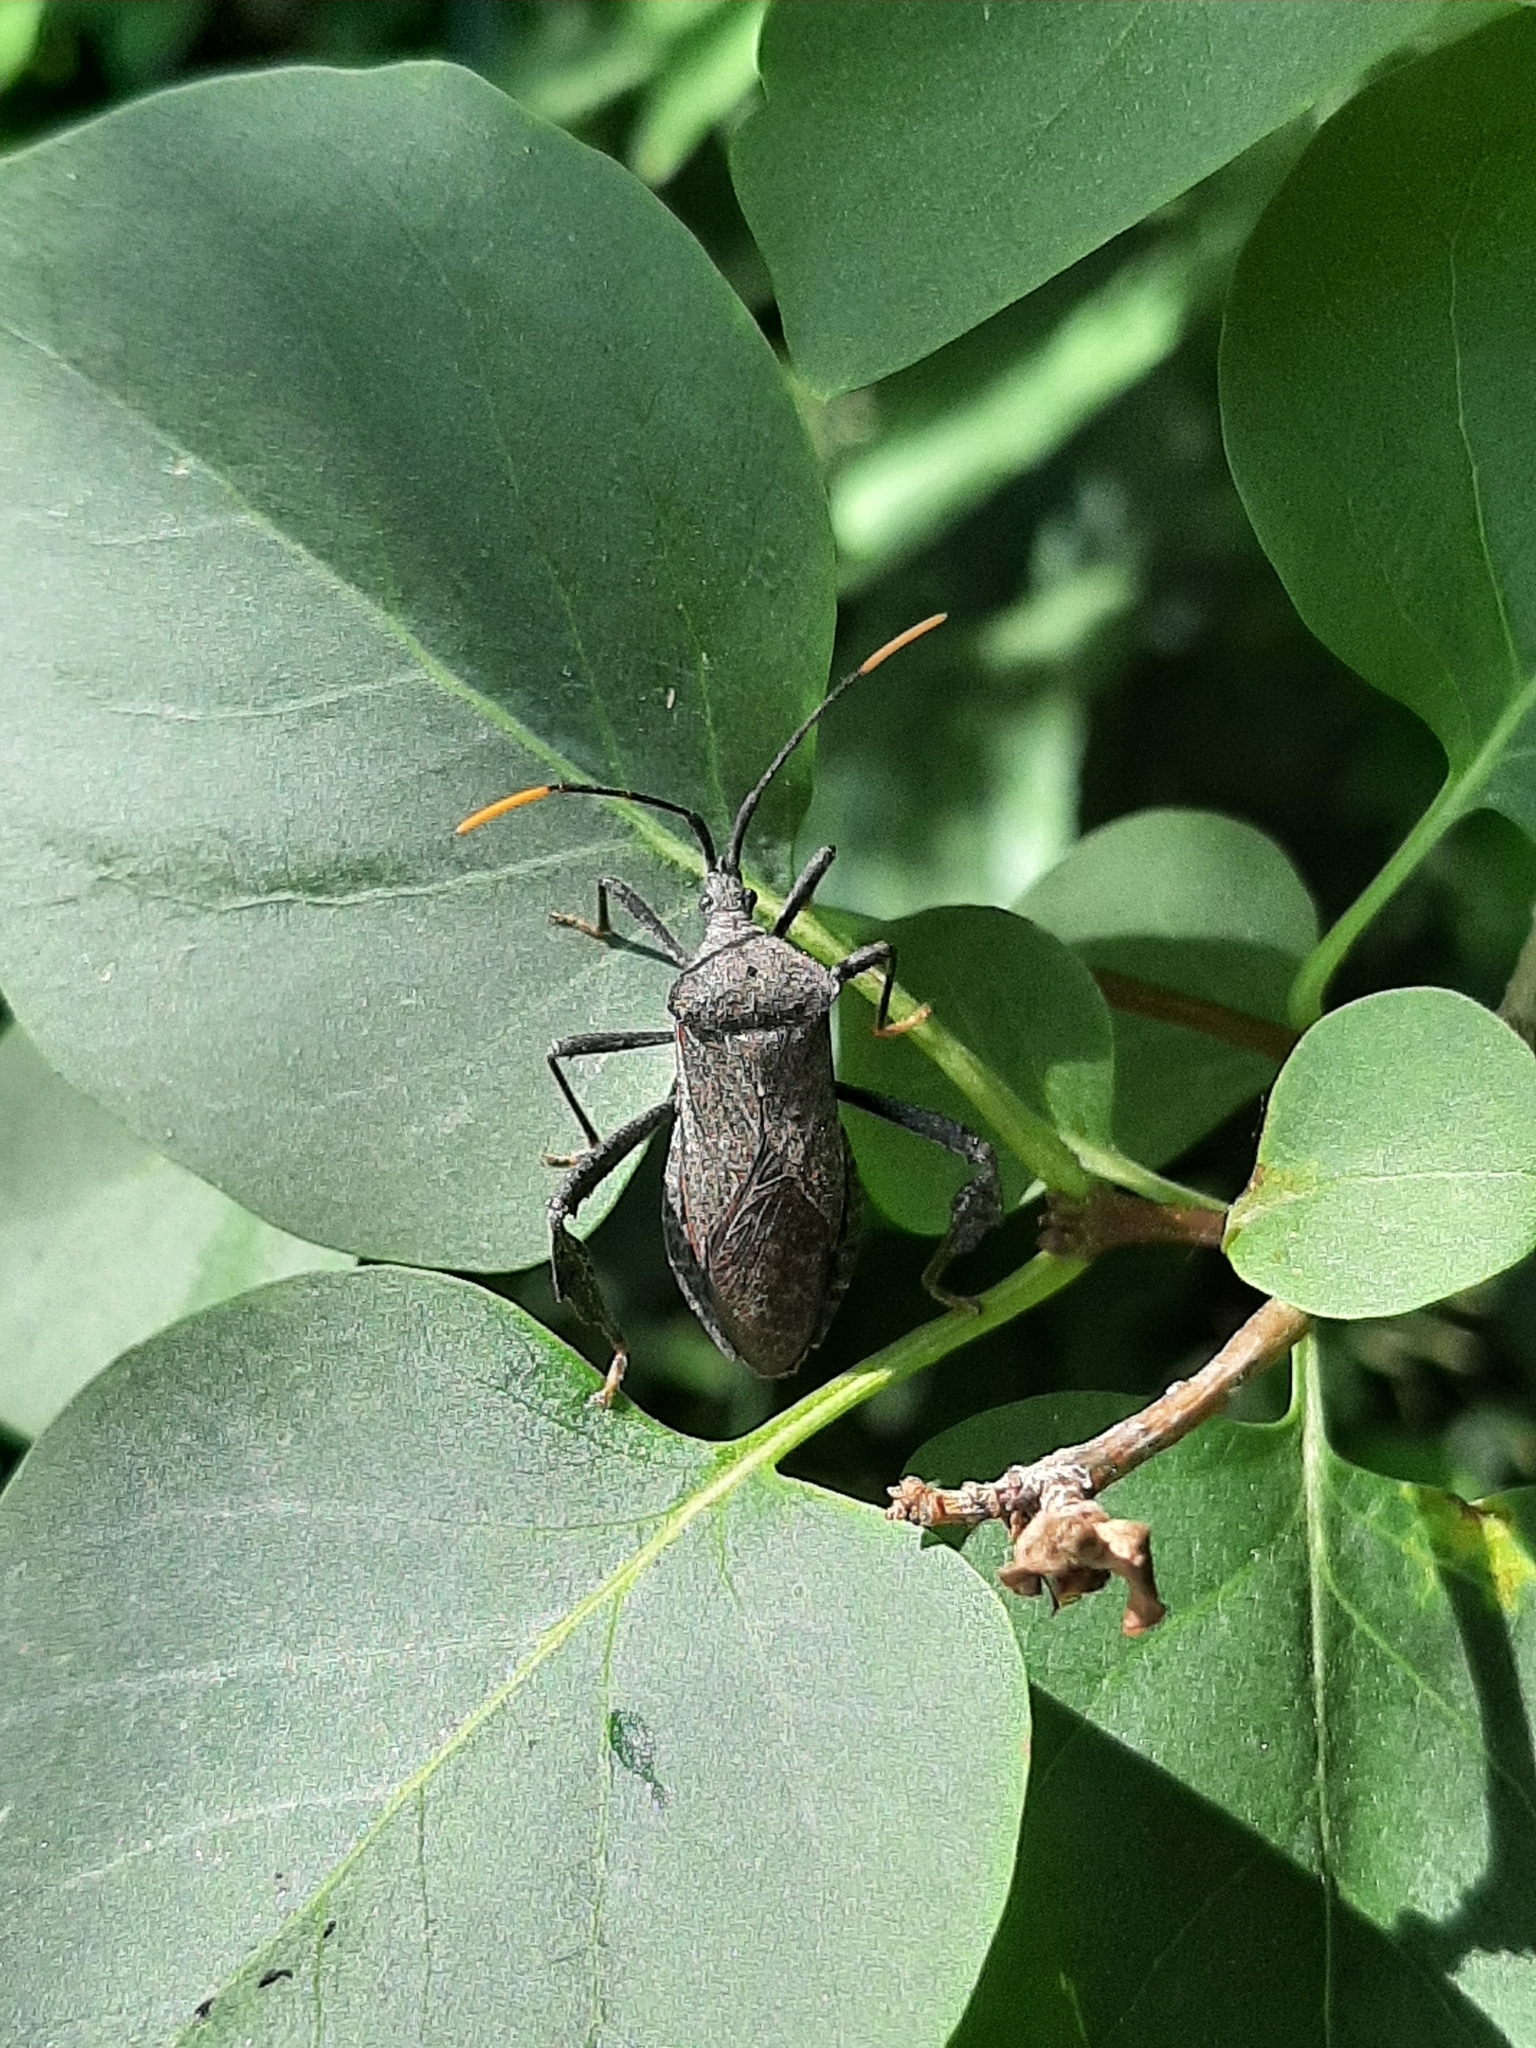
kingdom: Animalia
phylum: Arthropoda
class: Insecta
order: Hemiptera
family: Coreidae
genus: Acanthocephala
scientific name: Acanthocephala terminalis
